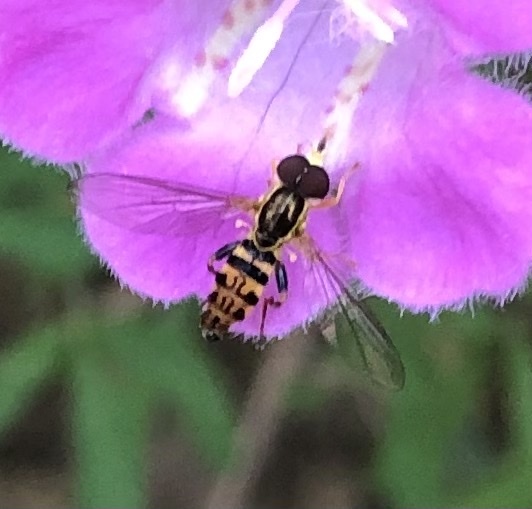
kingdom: Animalia
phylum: Arthropoda
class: Insecta
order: Diptera
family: Syrphidae
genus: Toxomerus
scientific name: Toxomerus geminatus
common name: Eastern calligrapher
